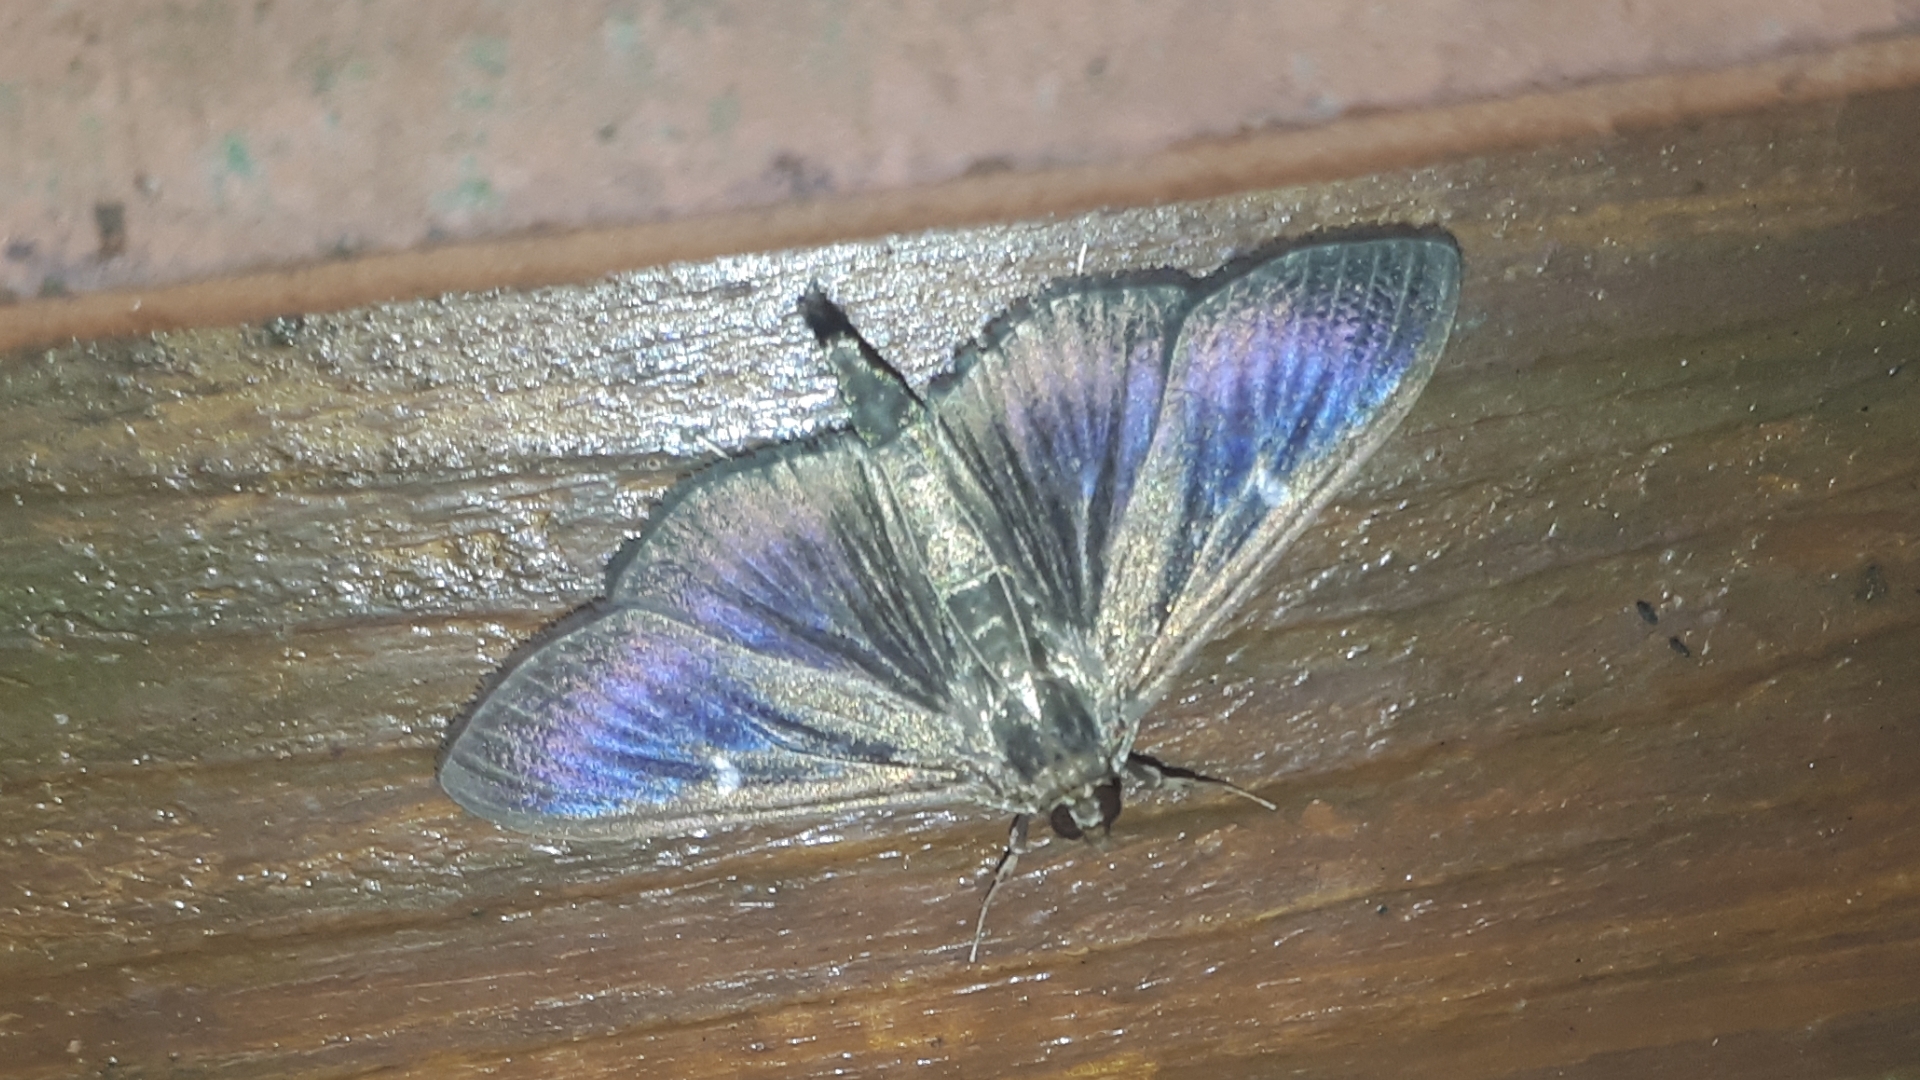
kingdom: Animalia
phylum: Arthropoda
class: Insecta
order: Lepidoptera
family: Crambidae
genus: Cydalima
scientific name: Cydalima perspectalis
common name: Box tree moth
